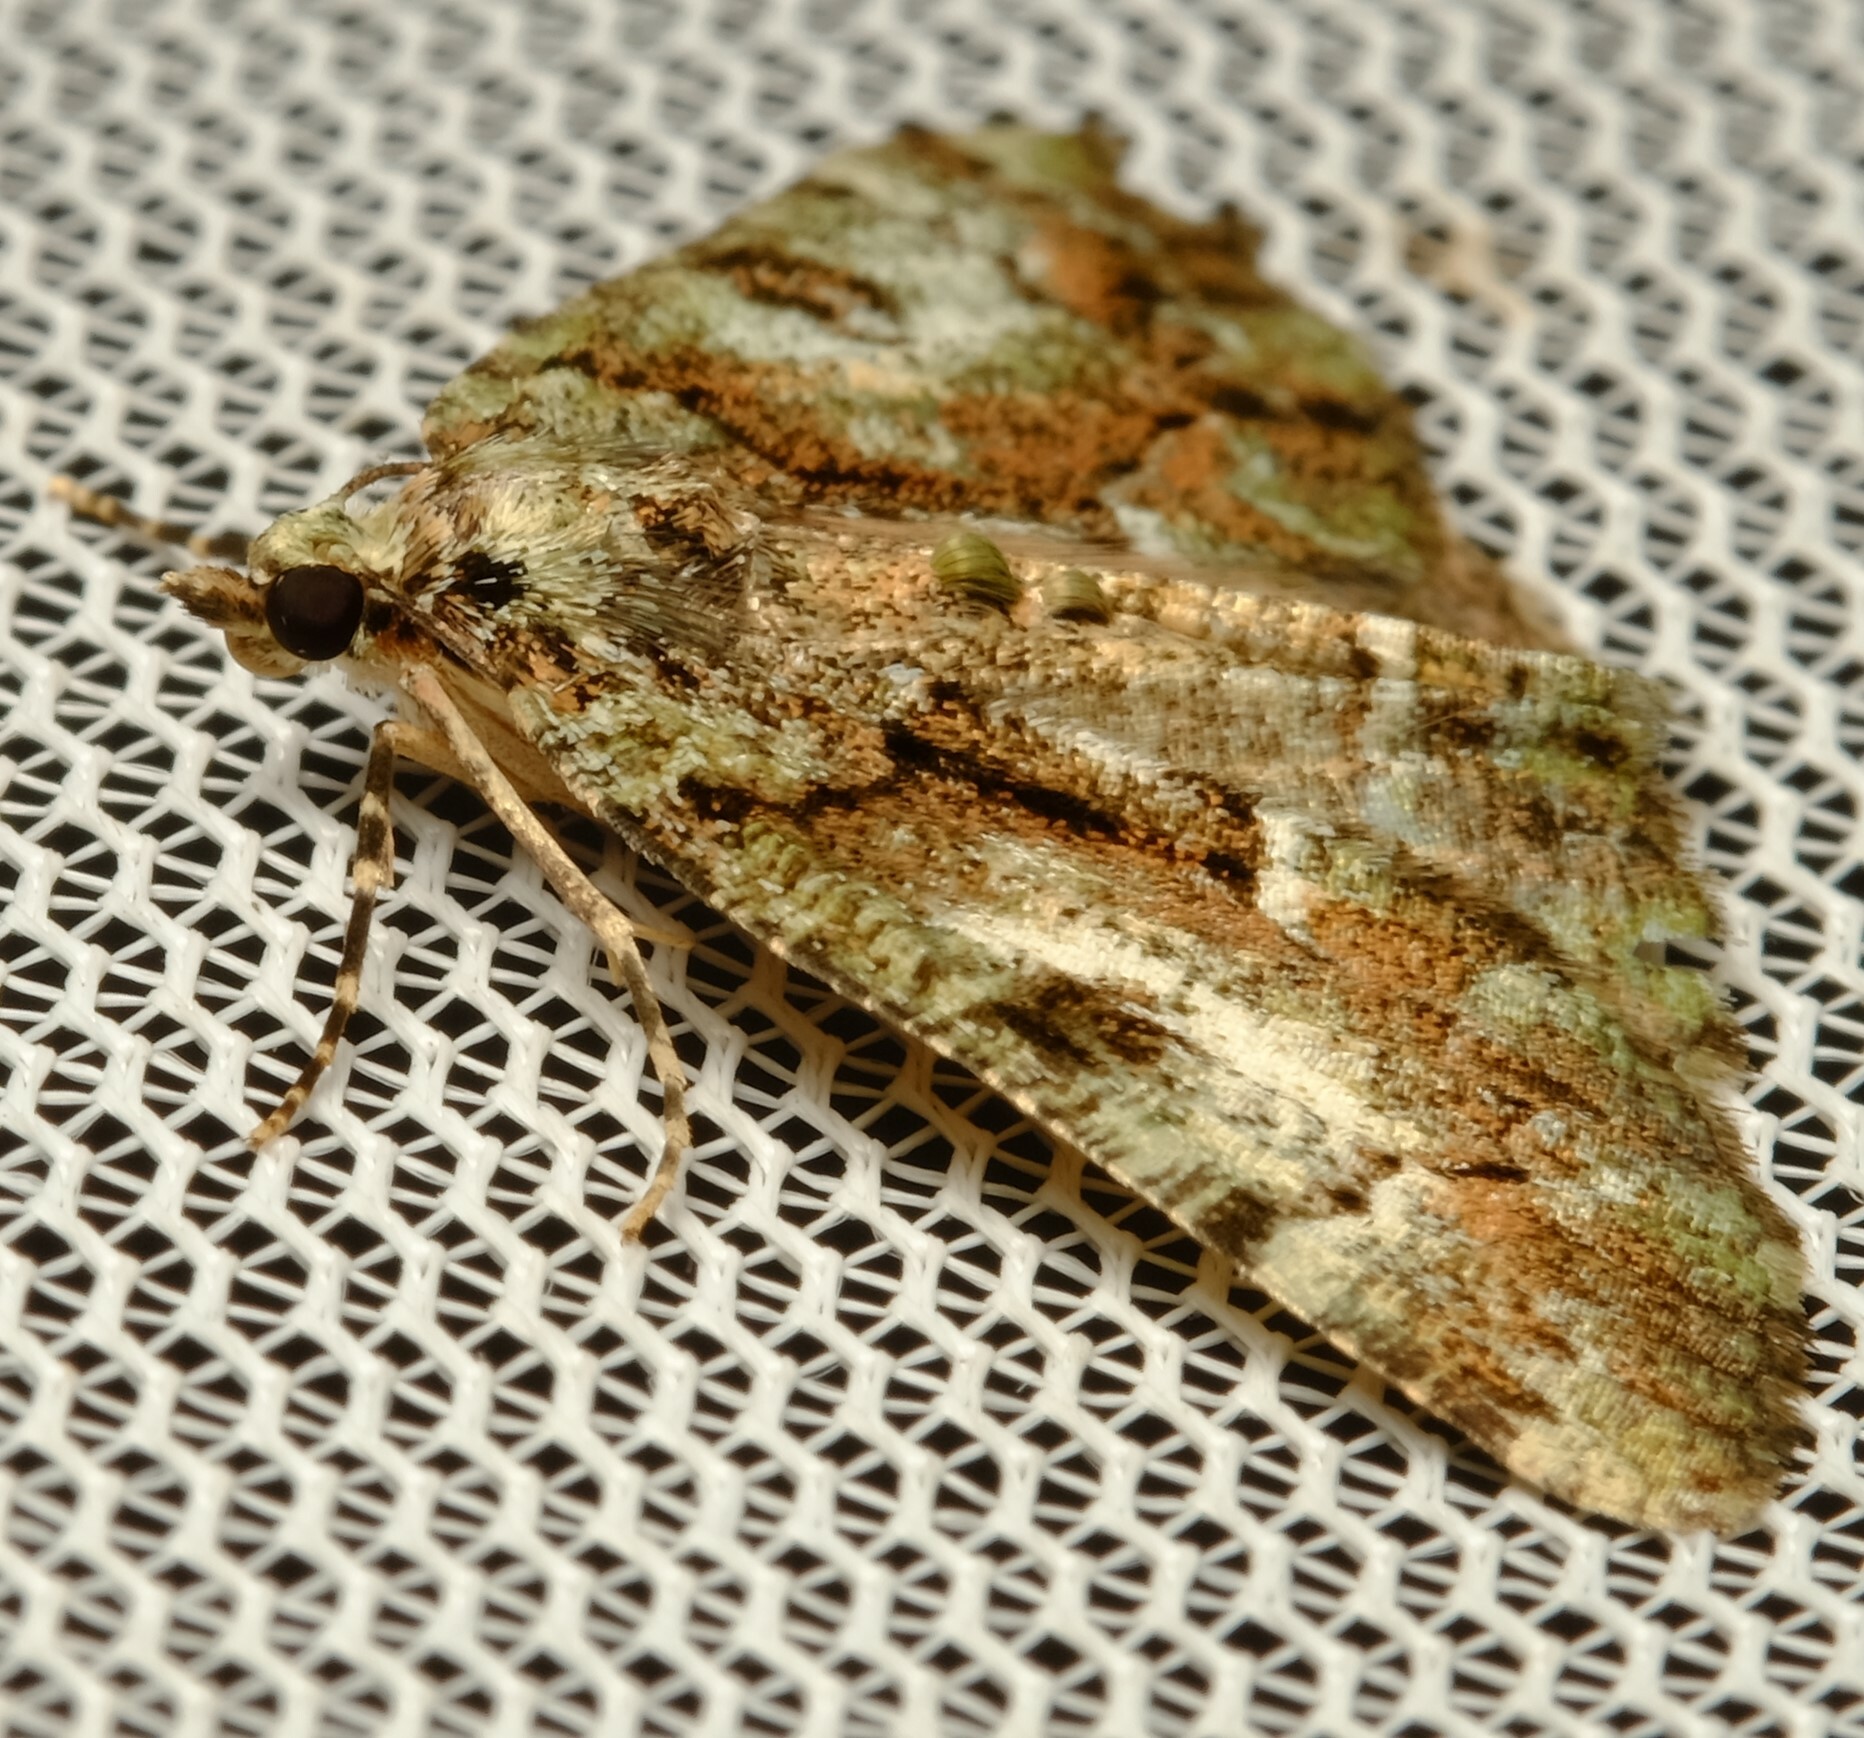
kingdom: Animalia
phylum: Arthropoda
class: Insecta
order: Lepidoptera
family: Geometridae
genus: Aeolochroma
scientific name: Aeolochroma metarhodata
